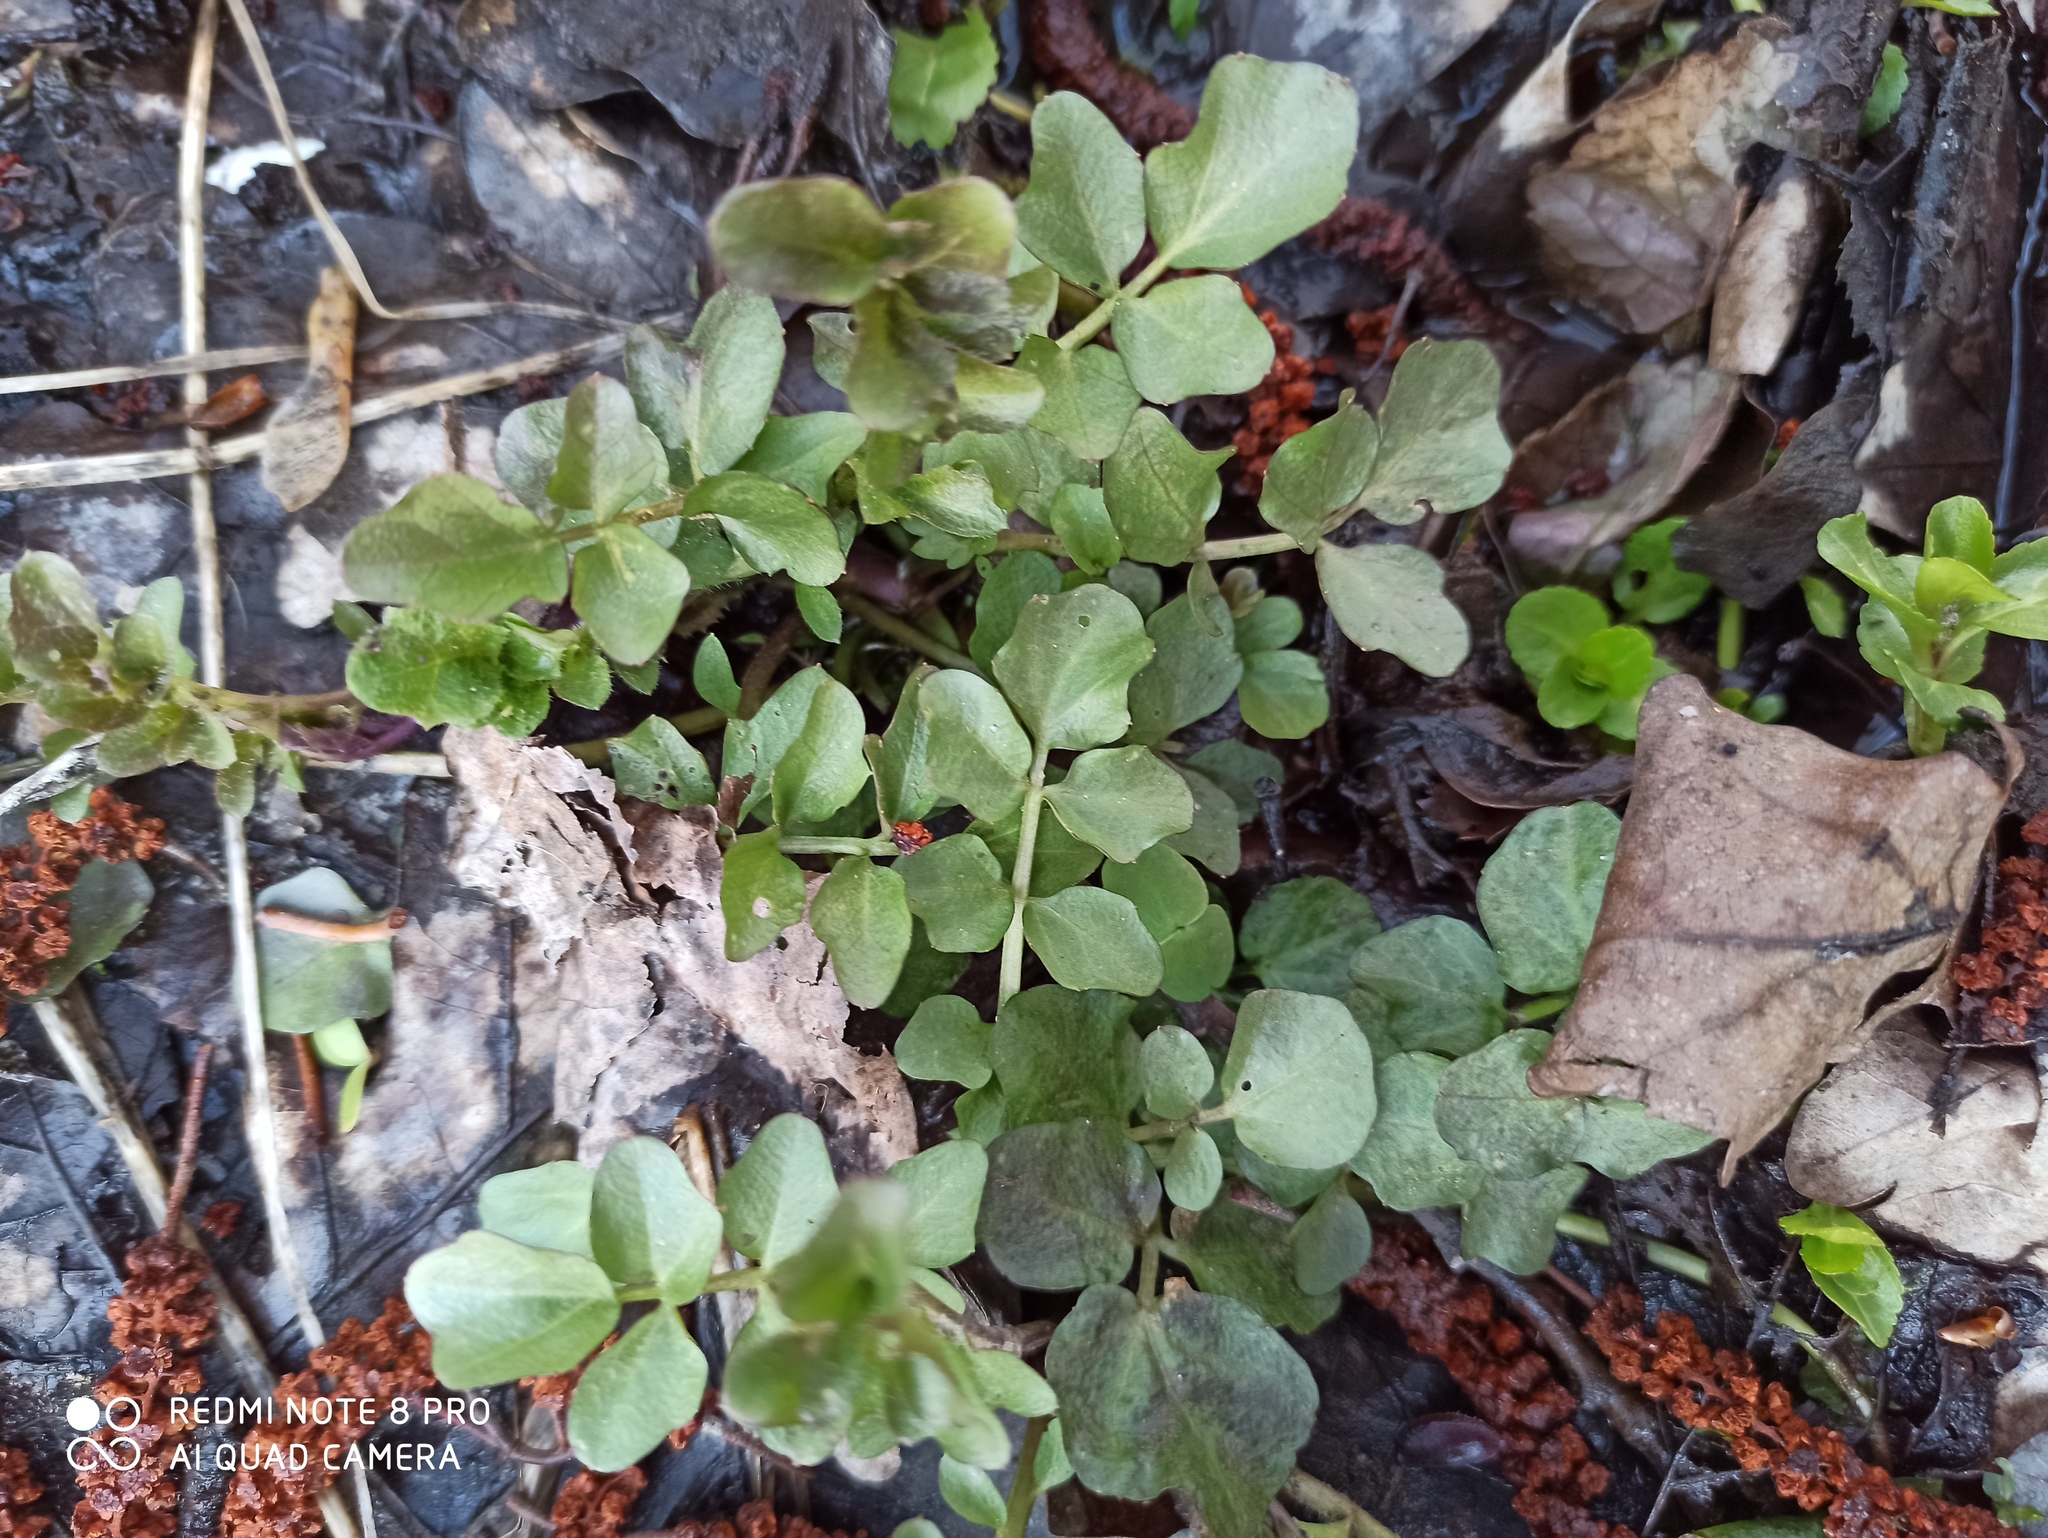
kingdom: Plantae
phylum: Tracheophyta
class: Magnoliopsida
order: Brassicales
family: Brassicaceae
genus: Cardamine
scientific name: Cardamine amara
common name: Large bitter-cress
